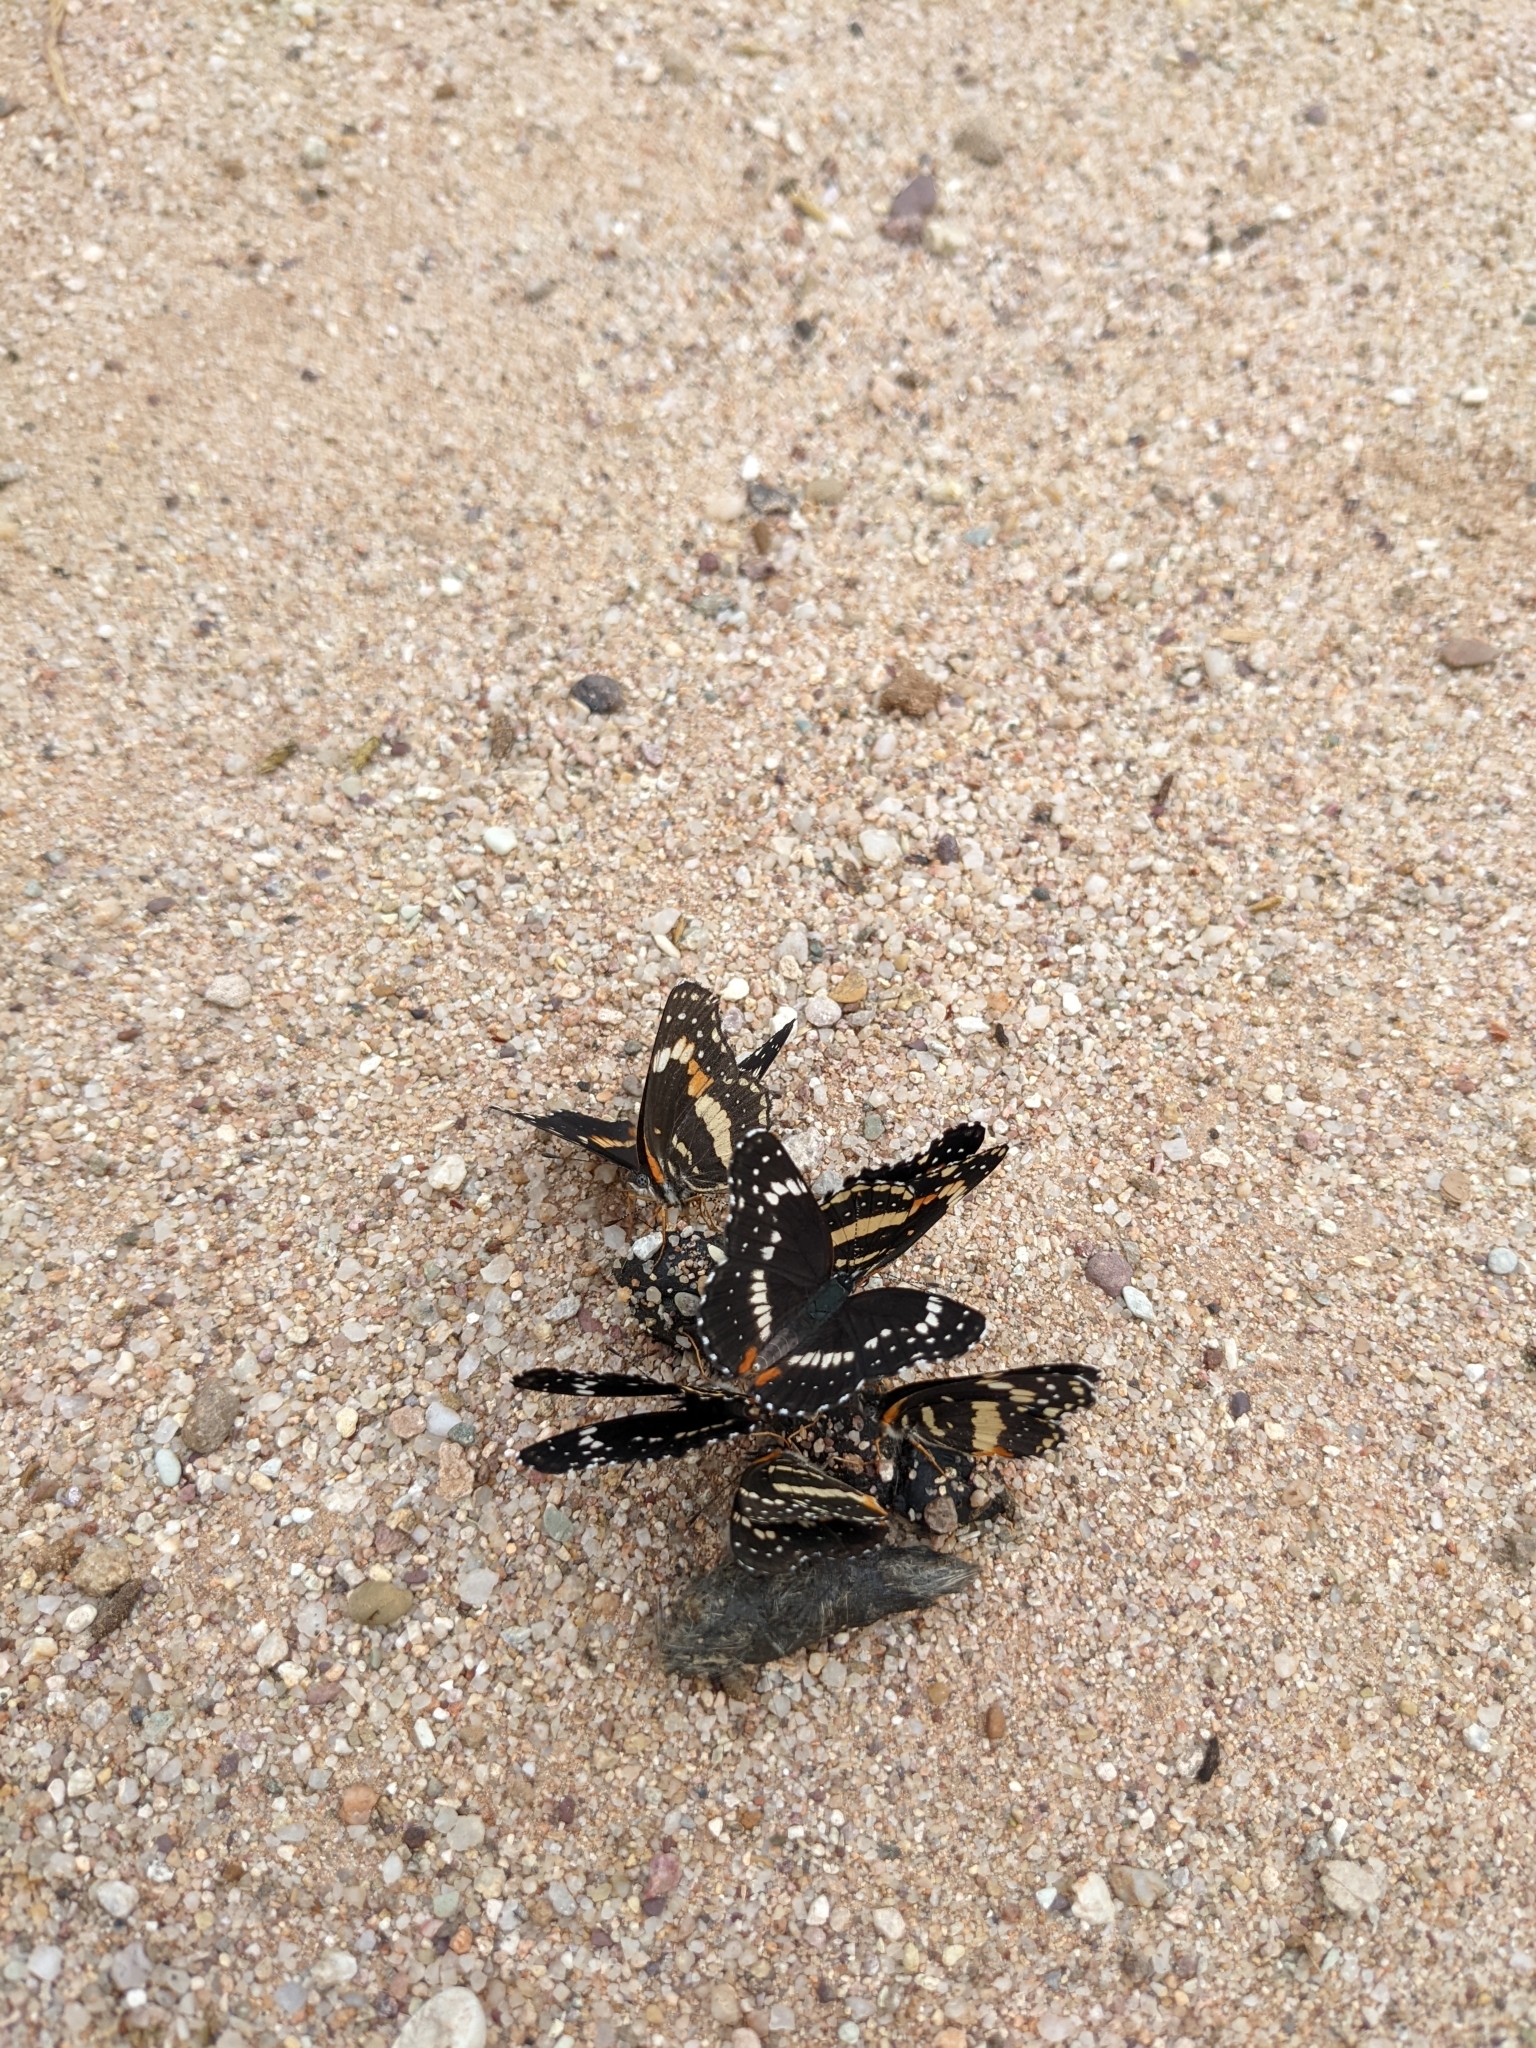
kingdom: Animalia
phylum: Arthropoda
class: Insecta
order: Lepidoptera
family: Nymphalidae
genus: Chlosyne
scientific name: Chlosyne lacinia
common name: Bordered patch
